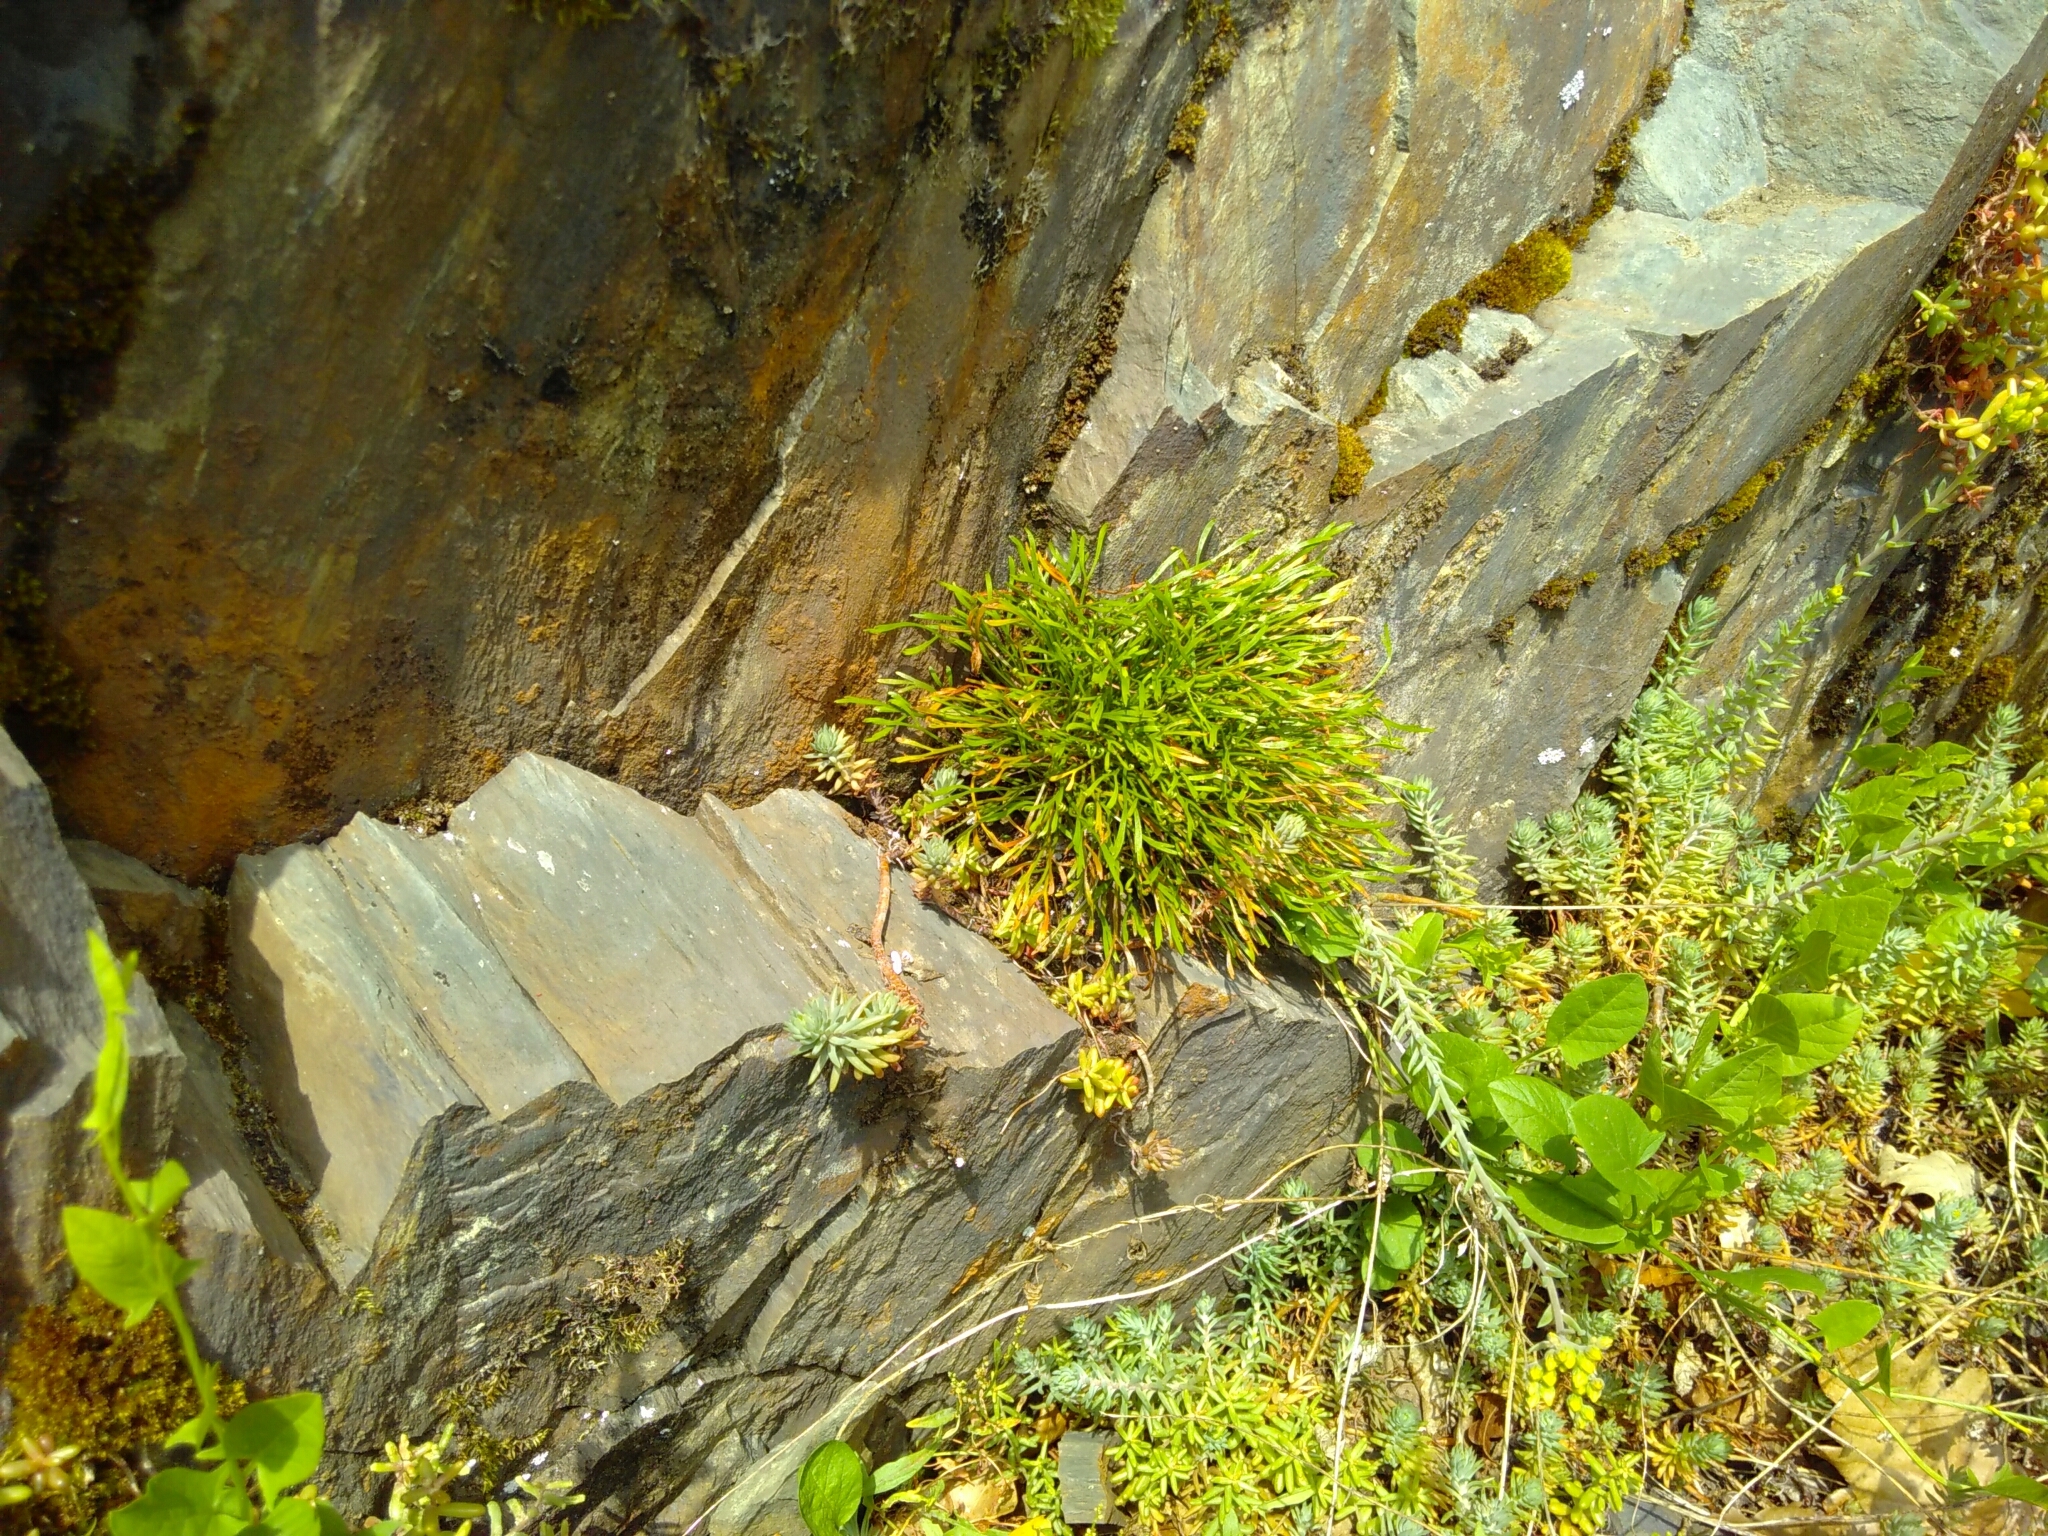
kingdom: Plantae
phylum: Tracheophyta
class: Polypodiopsida
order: Polypodiales
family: Aspleniaceae
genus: Asplenium
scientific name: Asplenium septentrionale
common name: Forked spleenwort
